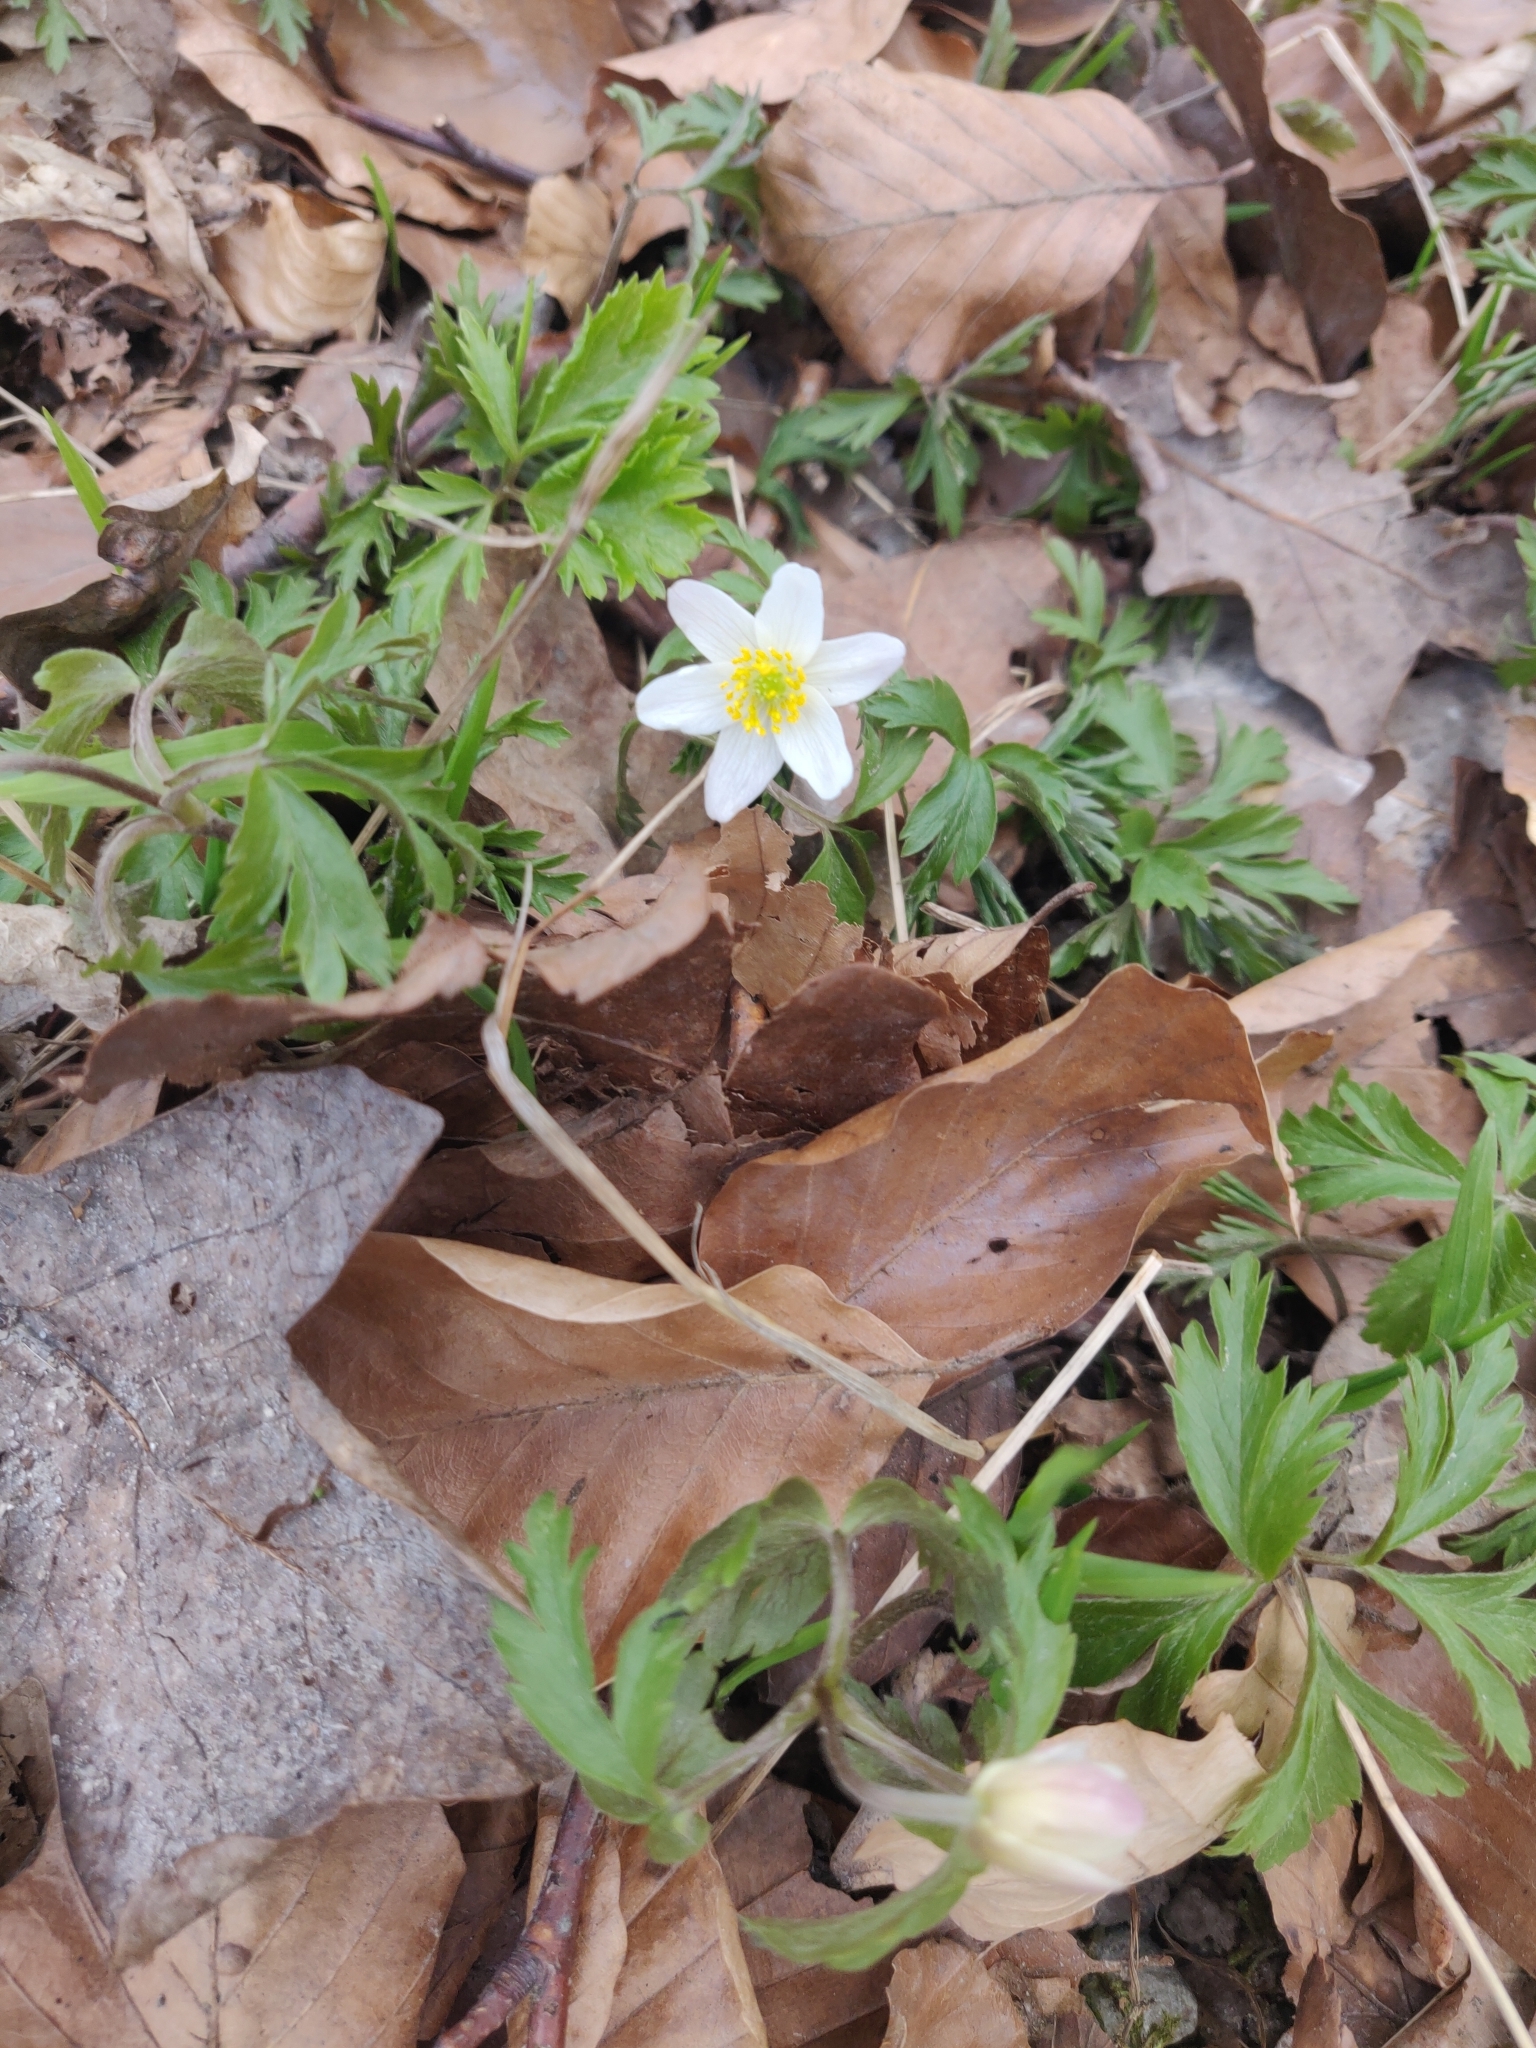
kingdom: Plantae
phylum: Tracheophyta
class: Magnoliopsida
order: Ranunculales
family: Ranunculaceae
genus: Anemone
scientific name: Anemone nemorosa
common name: Wood anemone
